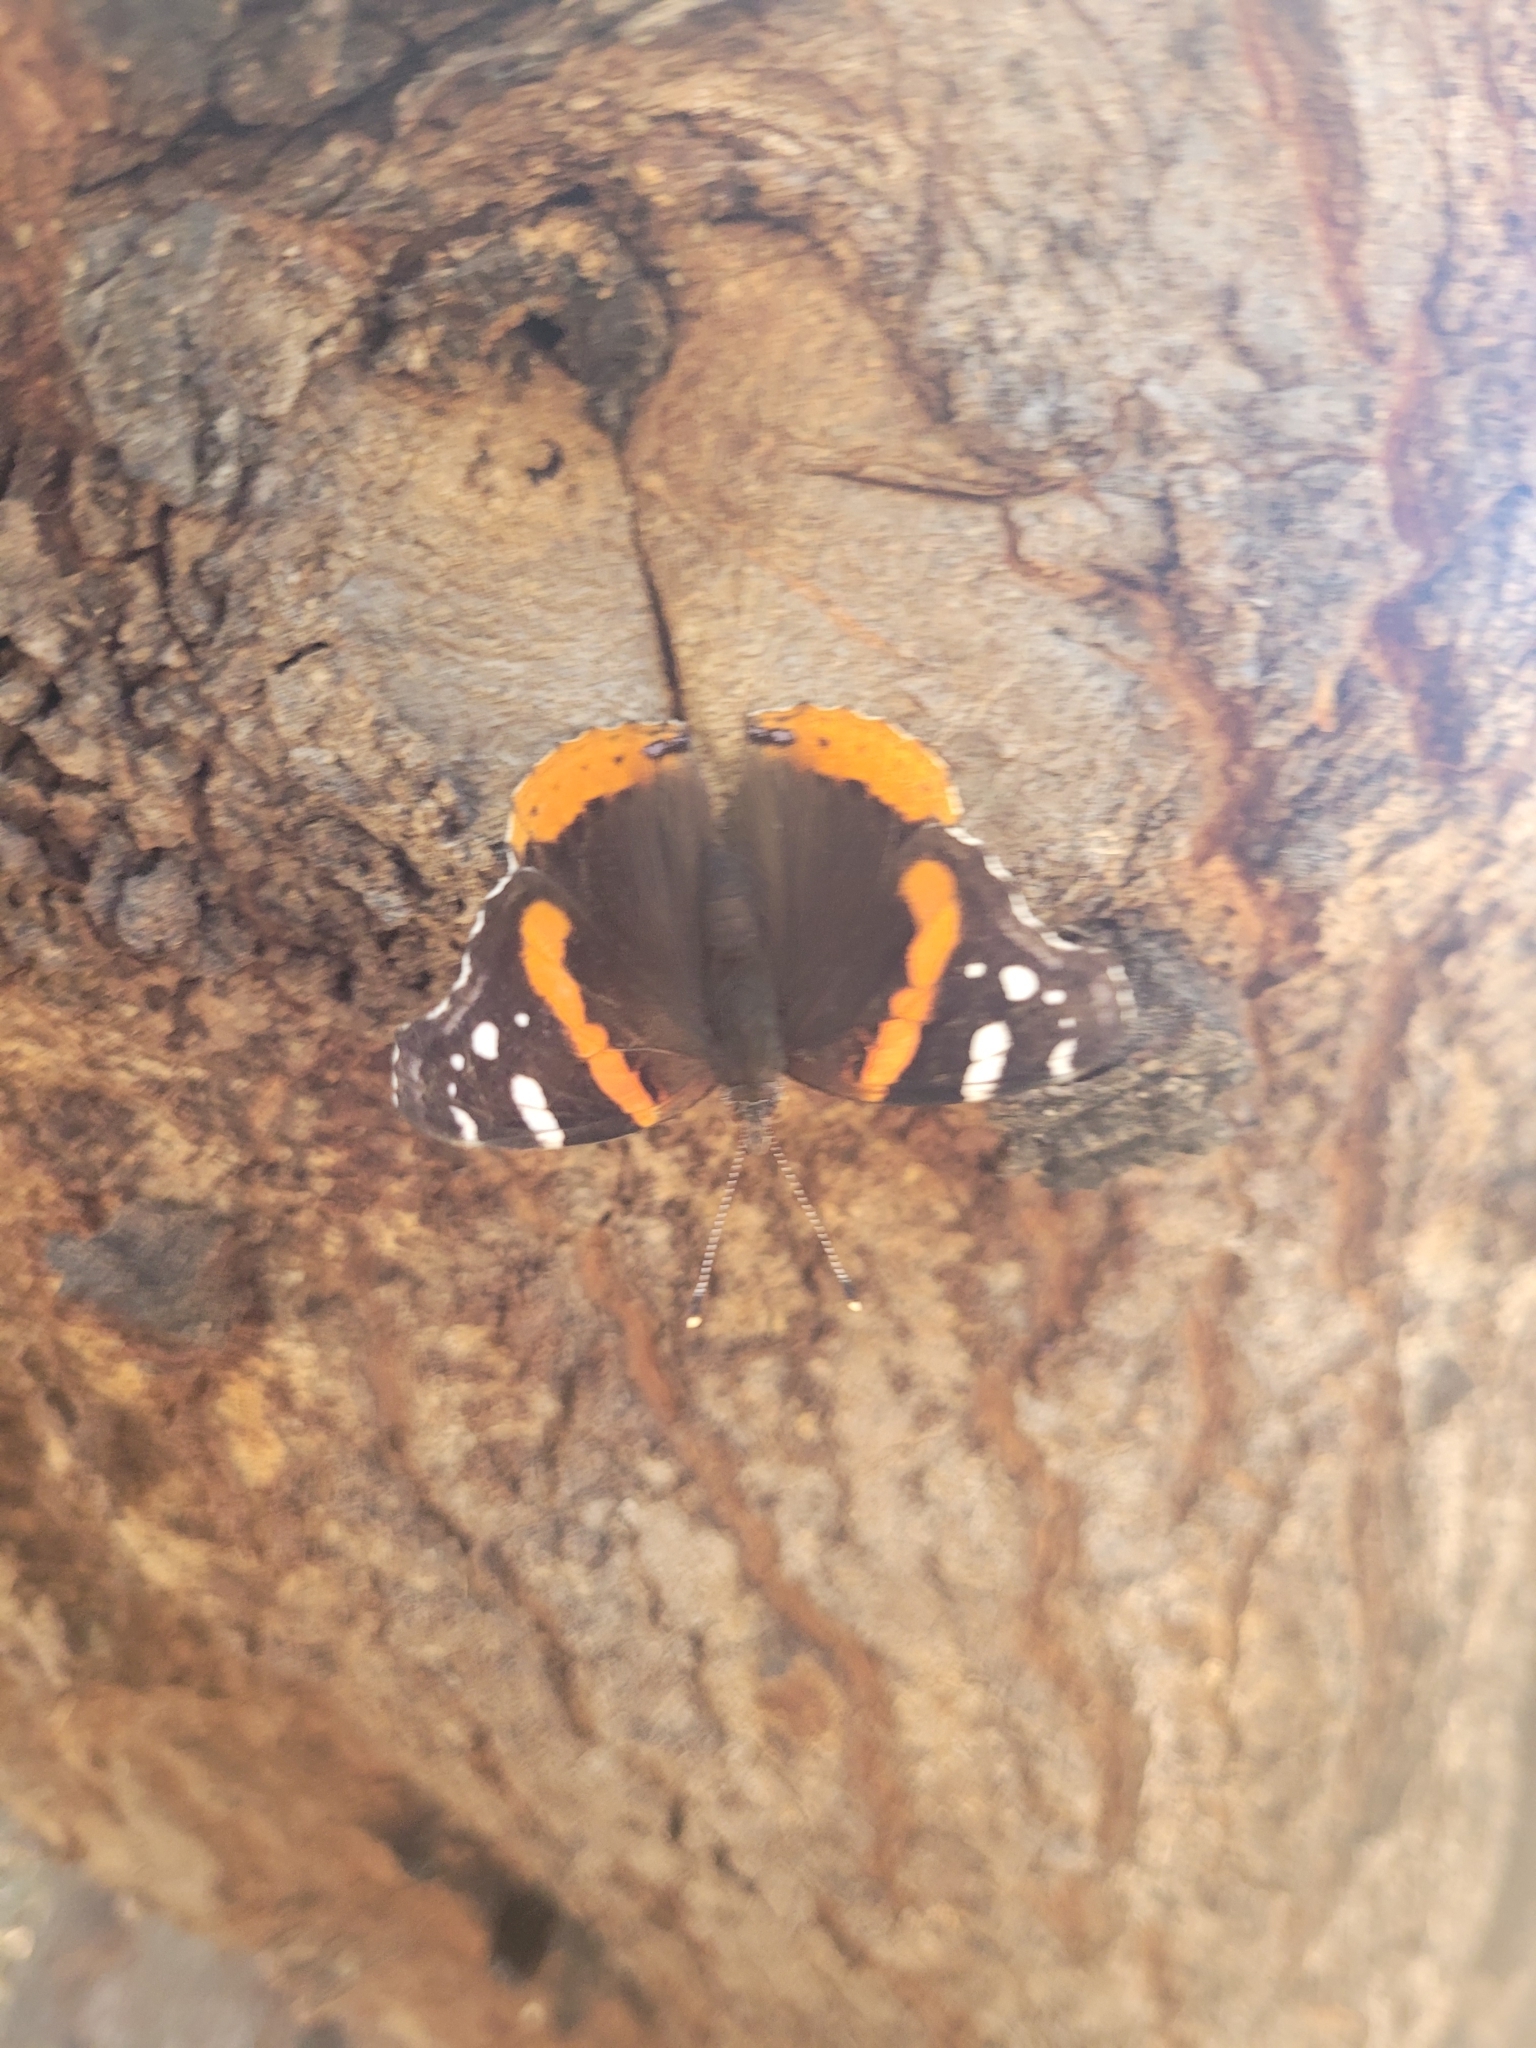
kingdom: Animalia
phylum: Arthropoda
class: Insecta
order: Lepidoptera
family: Nymphalidae
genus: Vanessa
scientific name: Vanessa atalanta
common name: Red admiral
